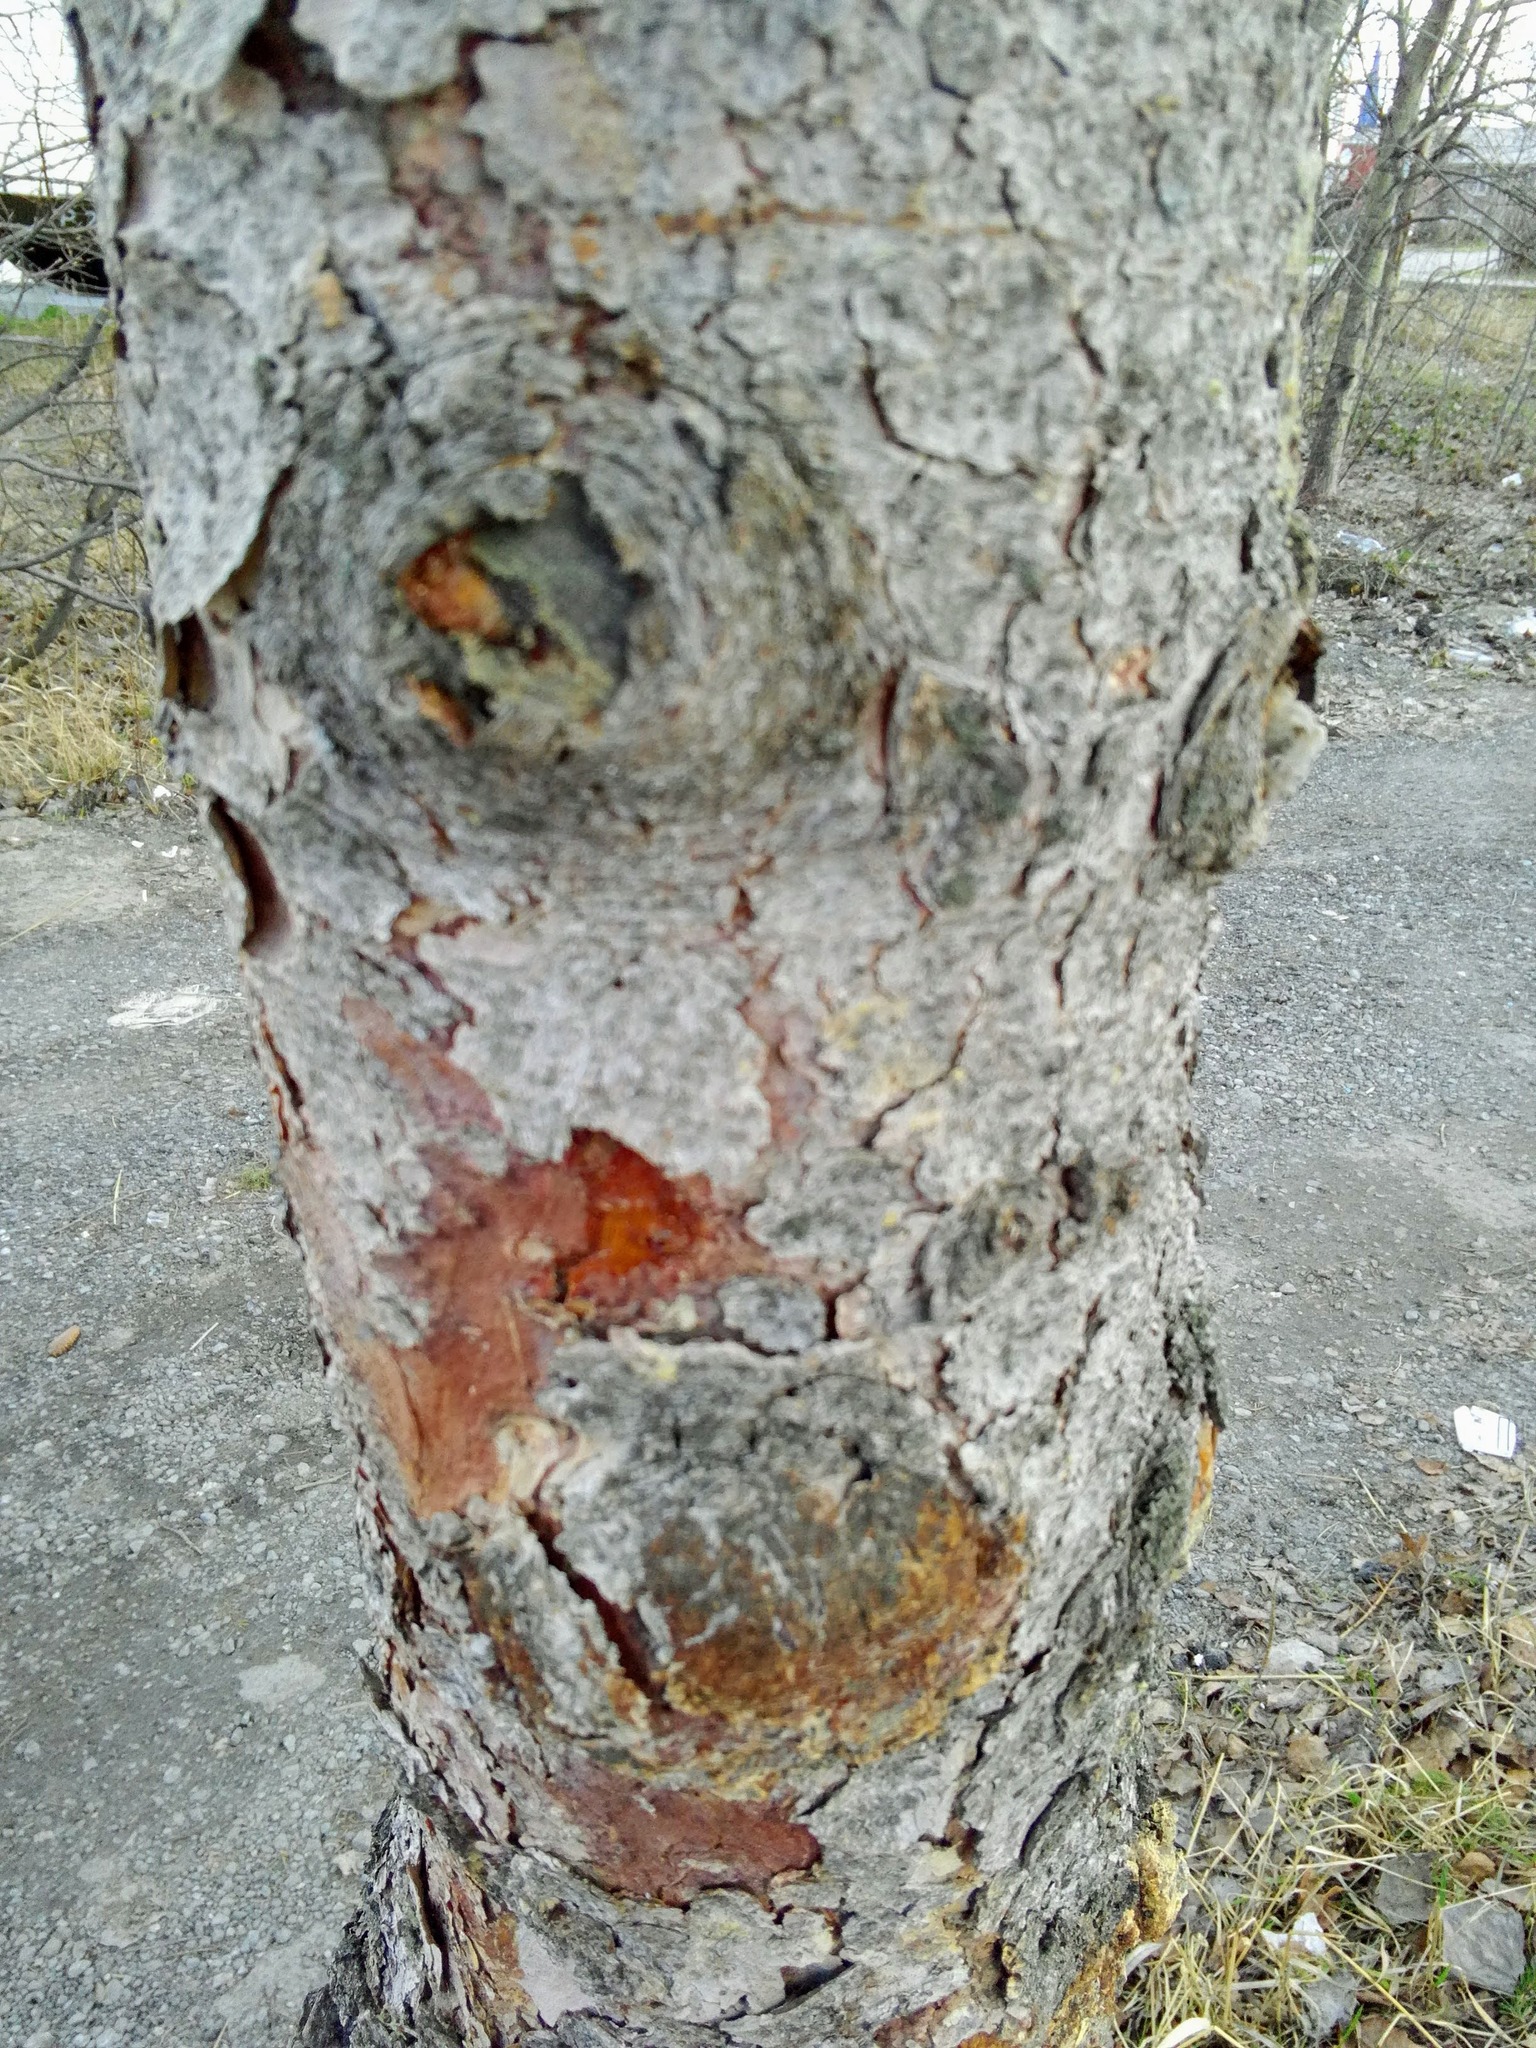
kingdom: Plantae
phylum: Tracheophyta
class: Pinopsida
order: Pinales
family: Pinaceae
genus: Picea
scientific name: Picea obovata
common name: Siberian spruce
